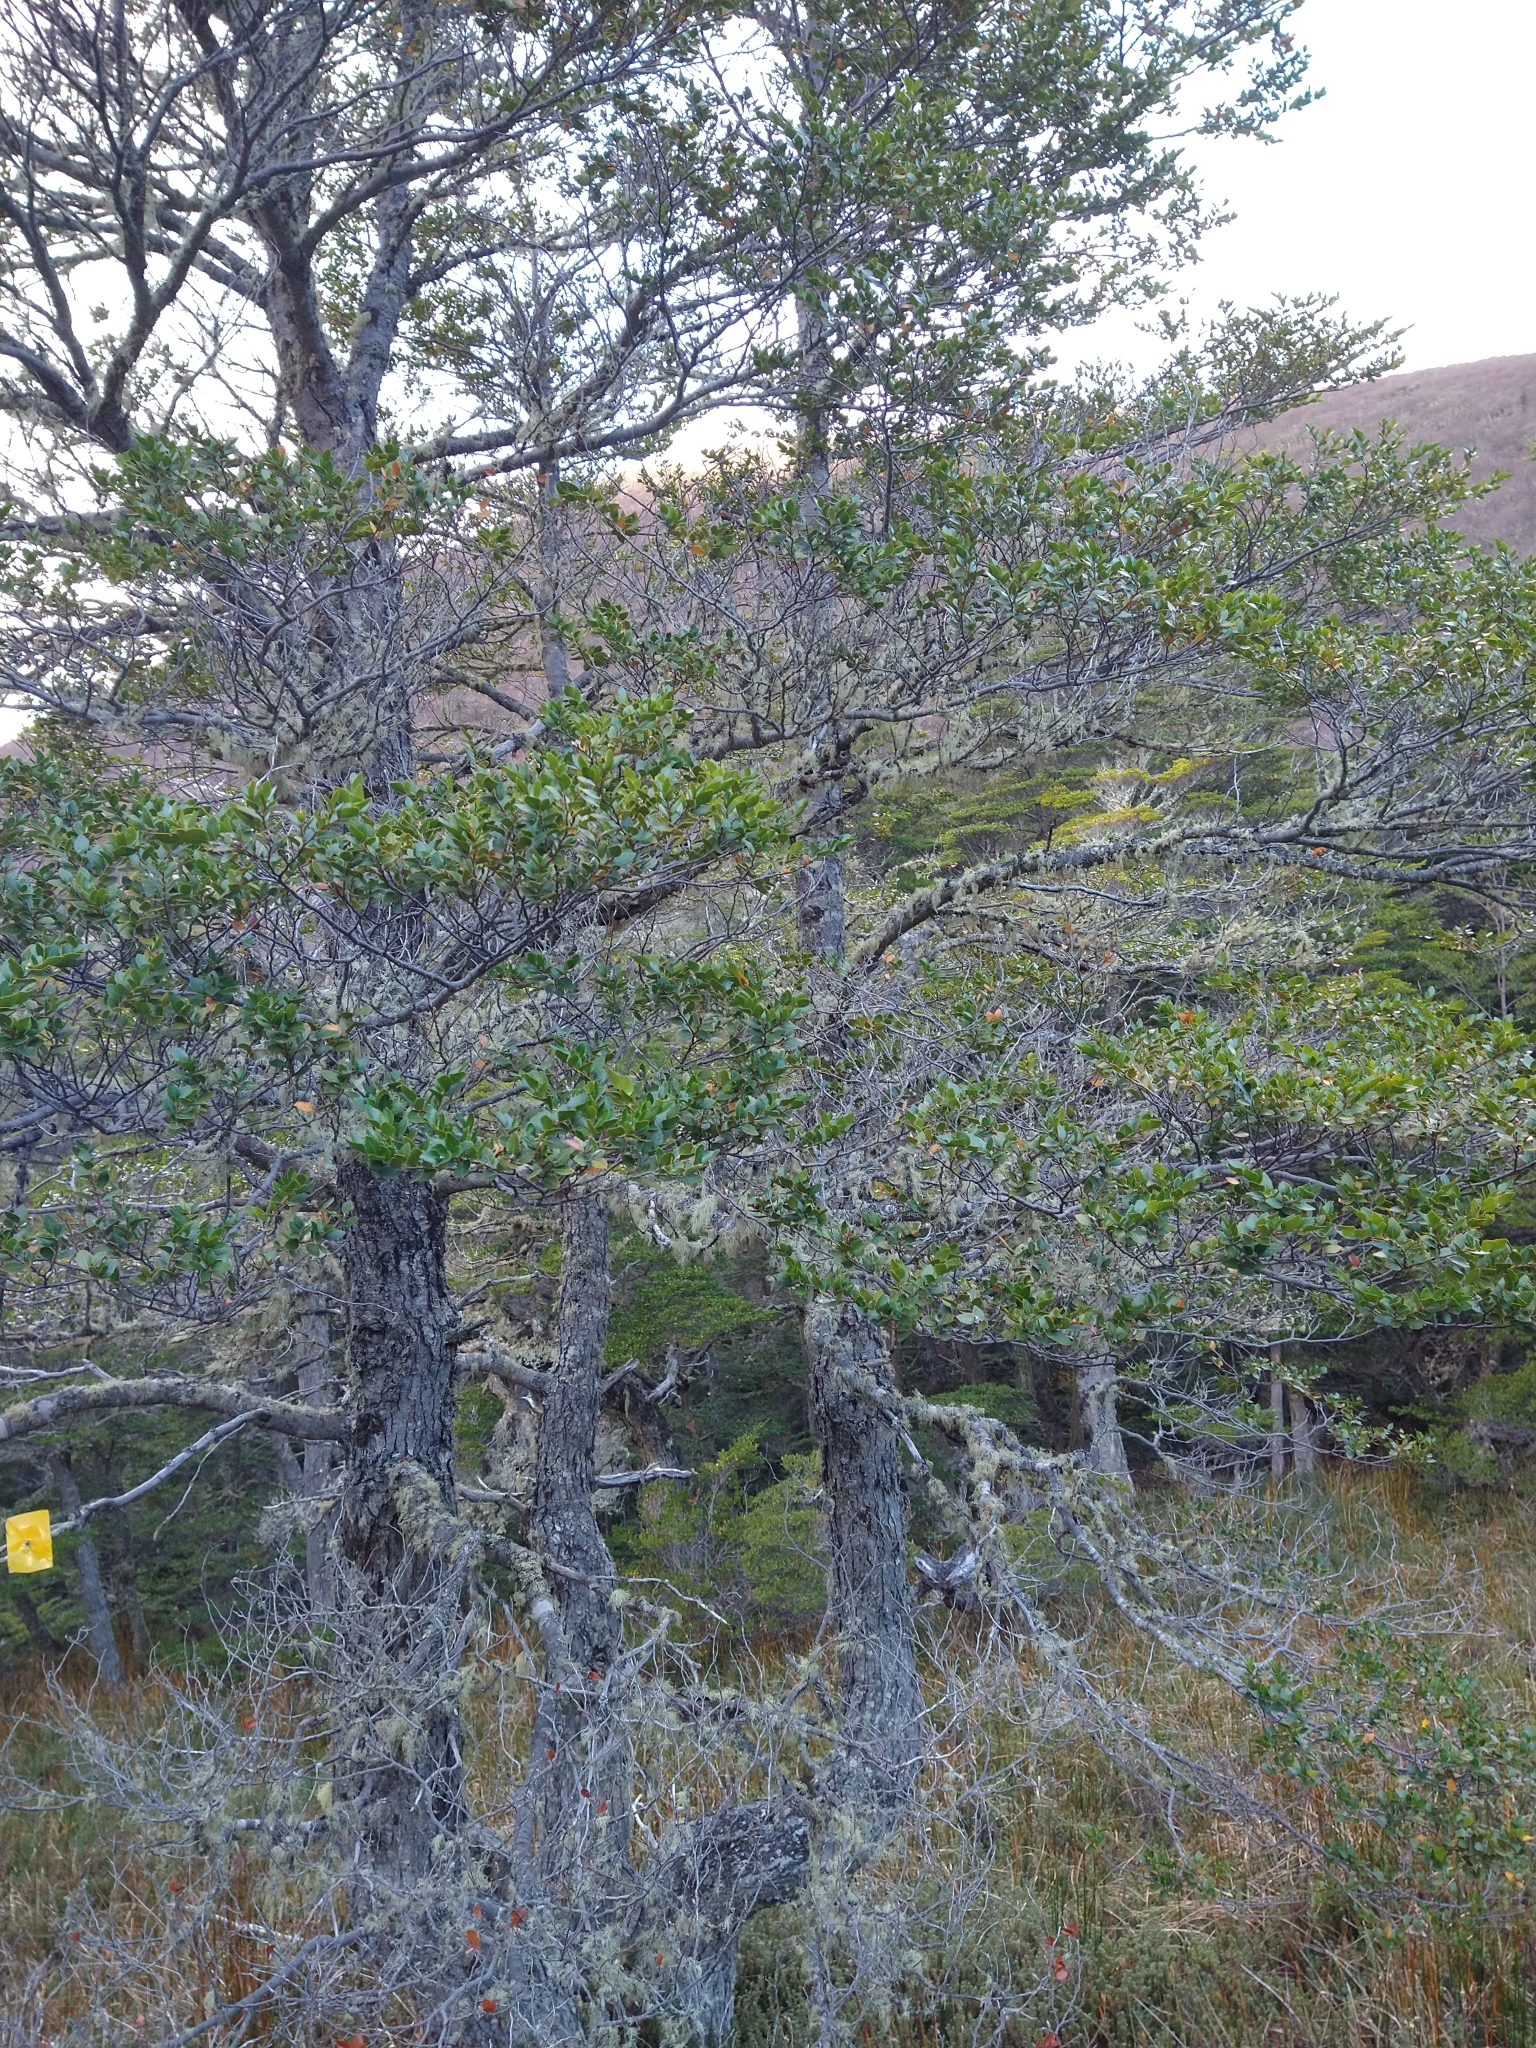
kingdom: Plantae
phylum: Tracheophyta
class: Magnoliopsida
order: Fagales
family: Nothofagaceae
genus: Nothofagus
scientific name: Nothofagus betuloides
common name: Magellan's beech
